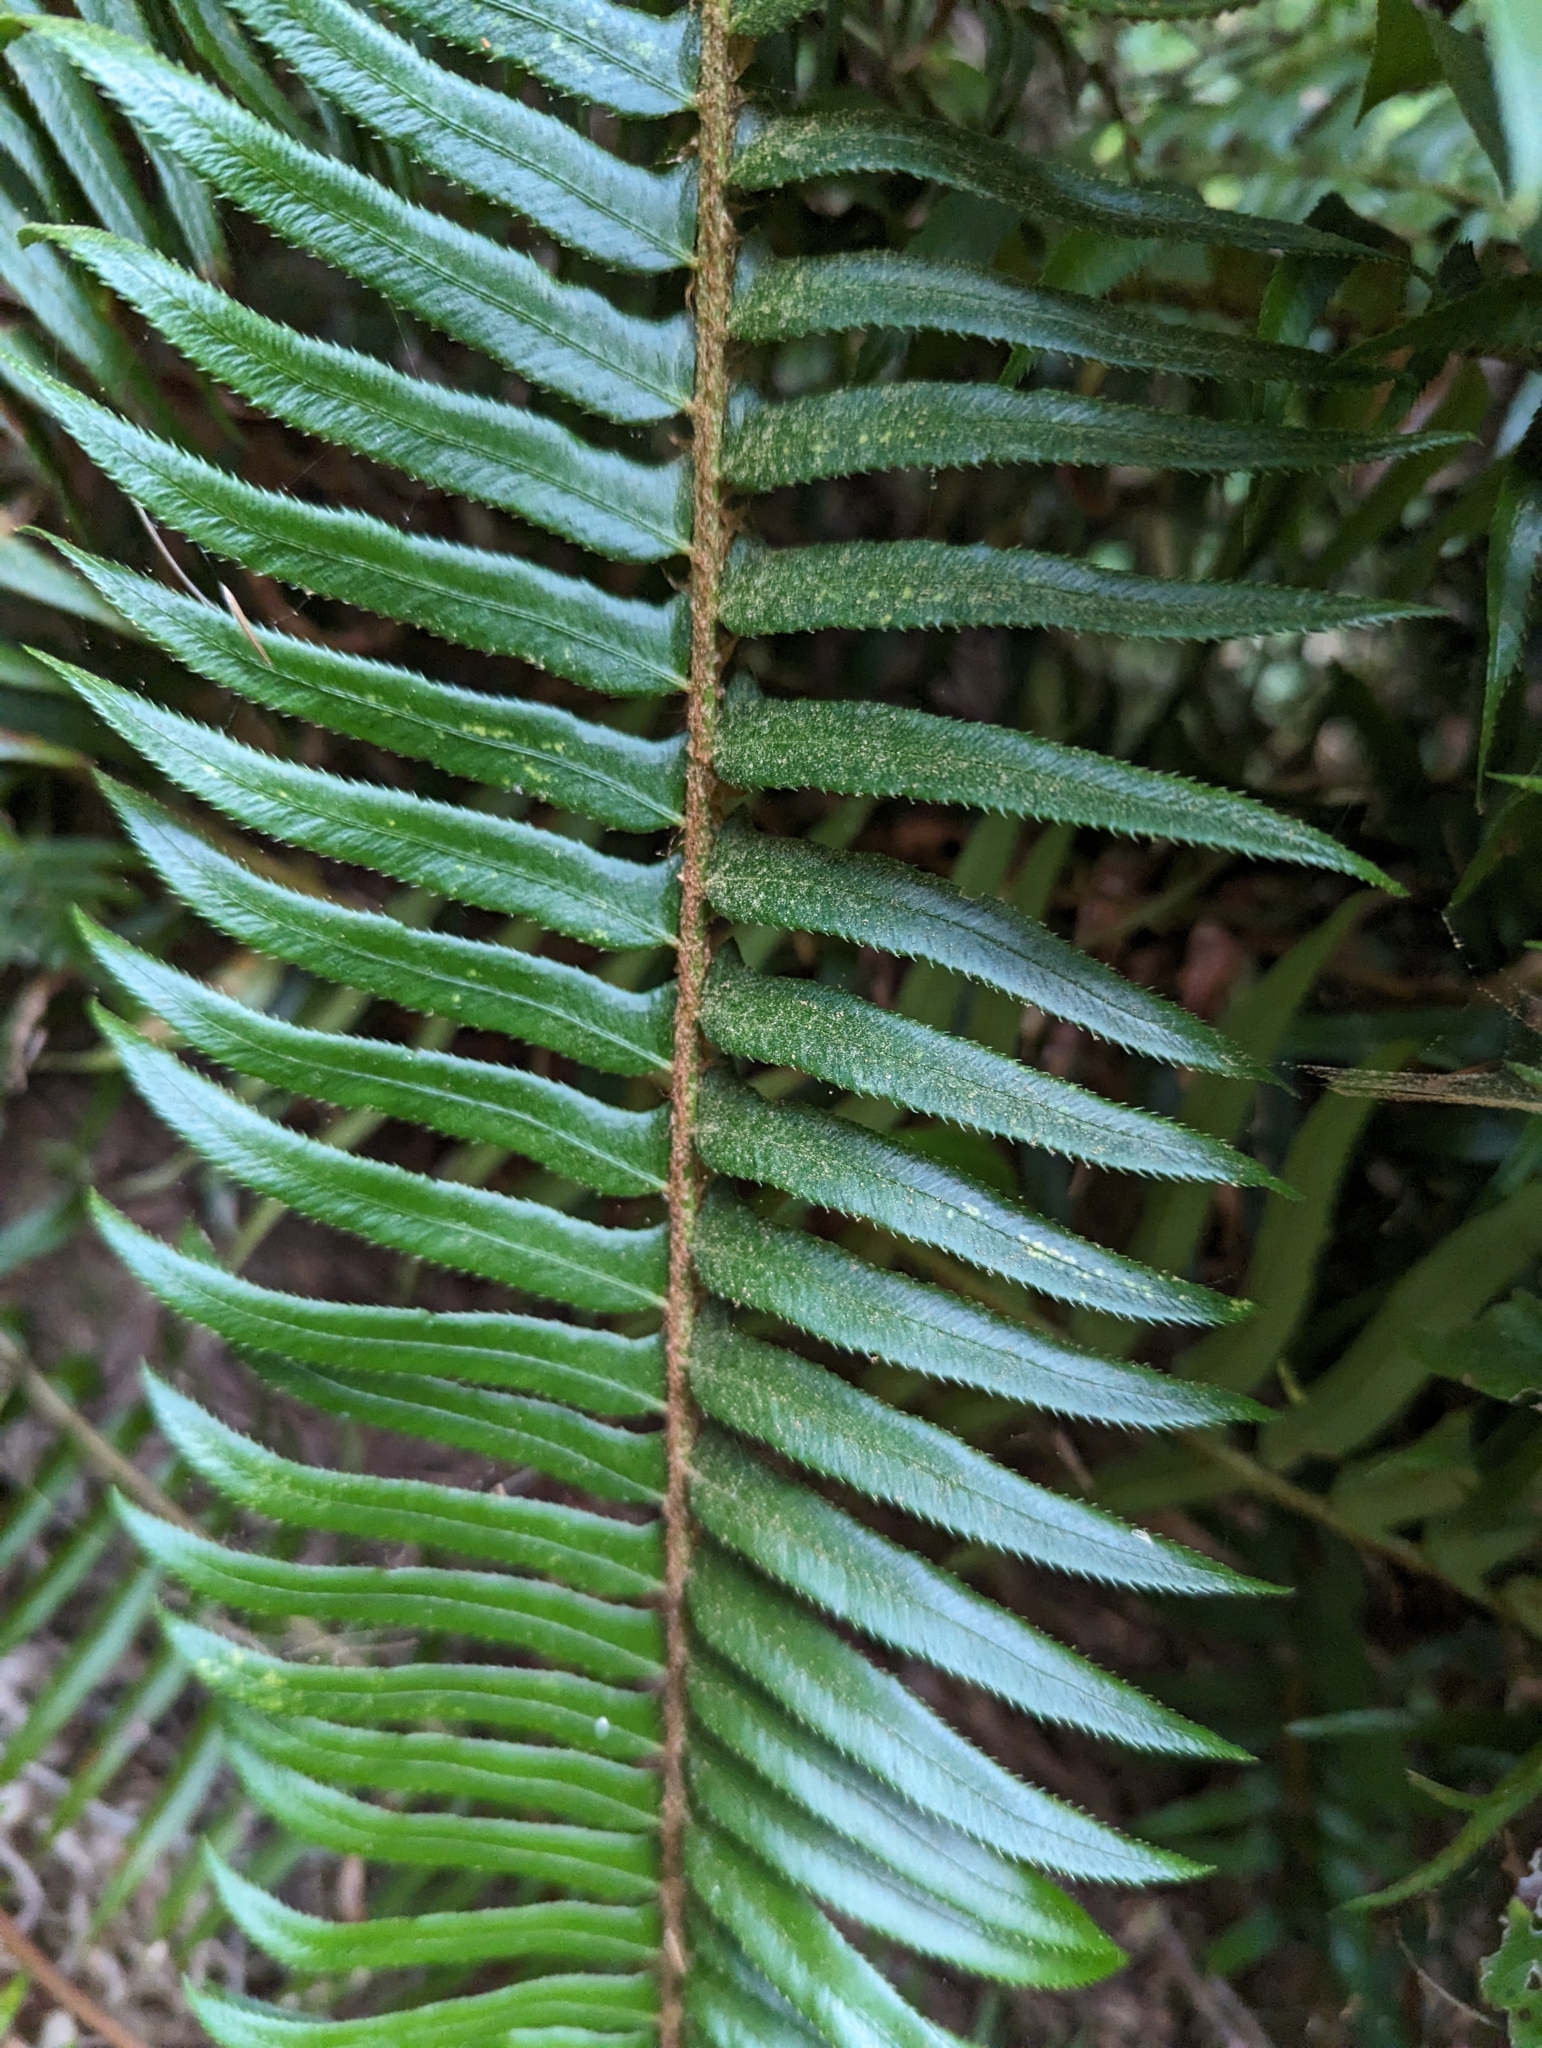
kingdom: Plantae
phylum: Tracheophyta
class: Polypodiopsida
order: Polypodiales
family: Dryopteridaceae
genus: Polystichum
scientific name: Polystichum munitum
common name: Western sword-fern
